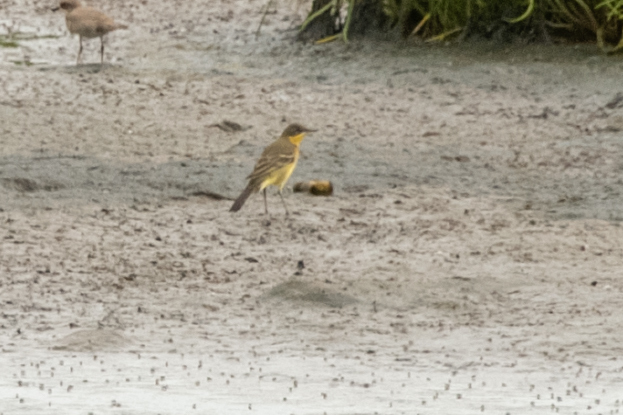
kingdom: Animalia
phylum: Chordata
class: Aves
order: Passeriformes
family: Motacillidae
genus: Motacilla
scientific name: Motacilla tschutschensis
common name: Eastern yellow wagtail
